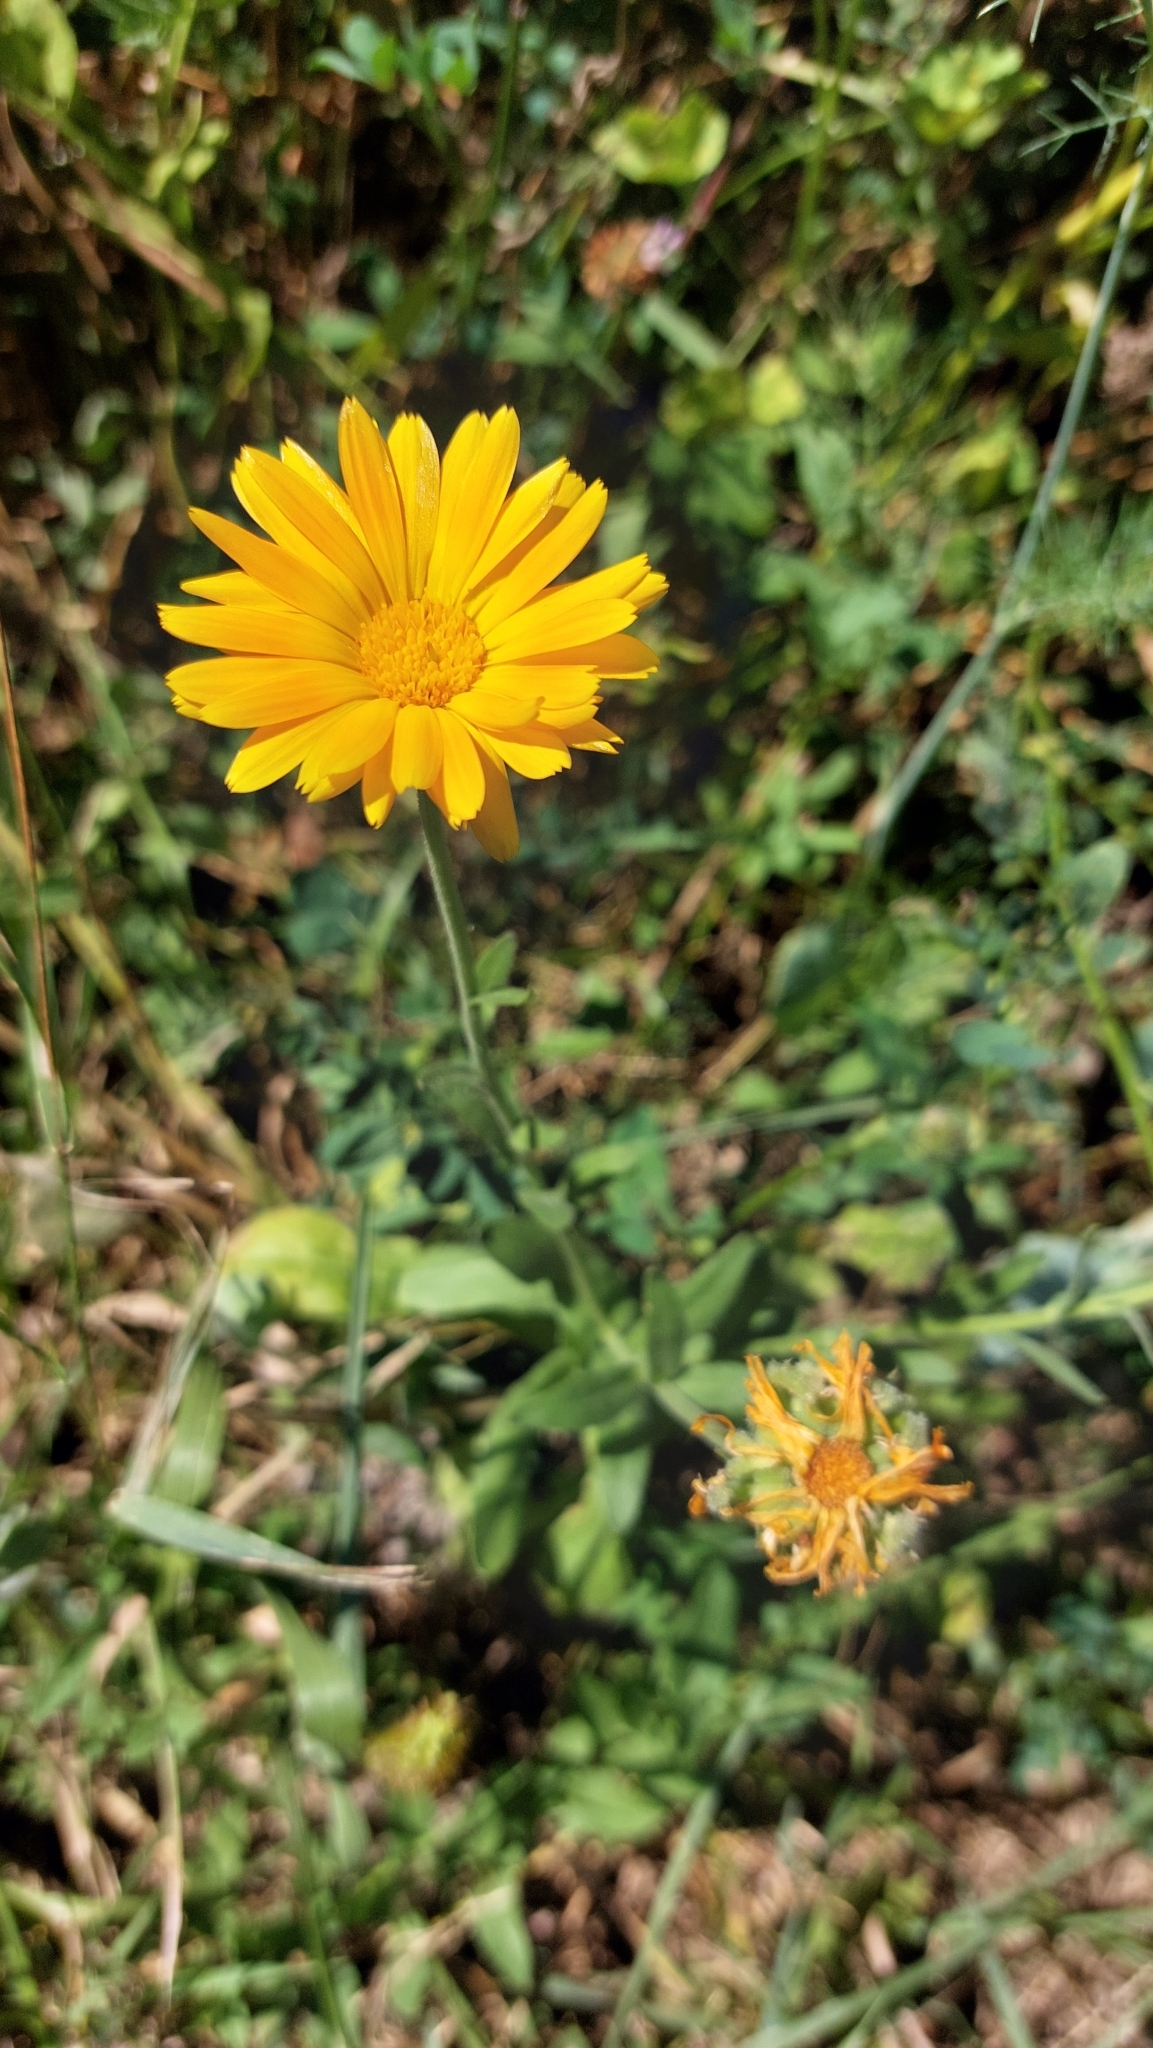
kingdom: Plantae
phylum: Tracheophyta
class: Magnoliopsida
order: Asterales
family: Asteraceae
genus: Calendula
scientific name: Calendula officinalis
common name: Pot marigold
